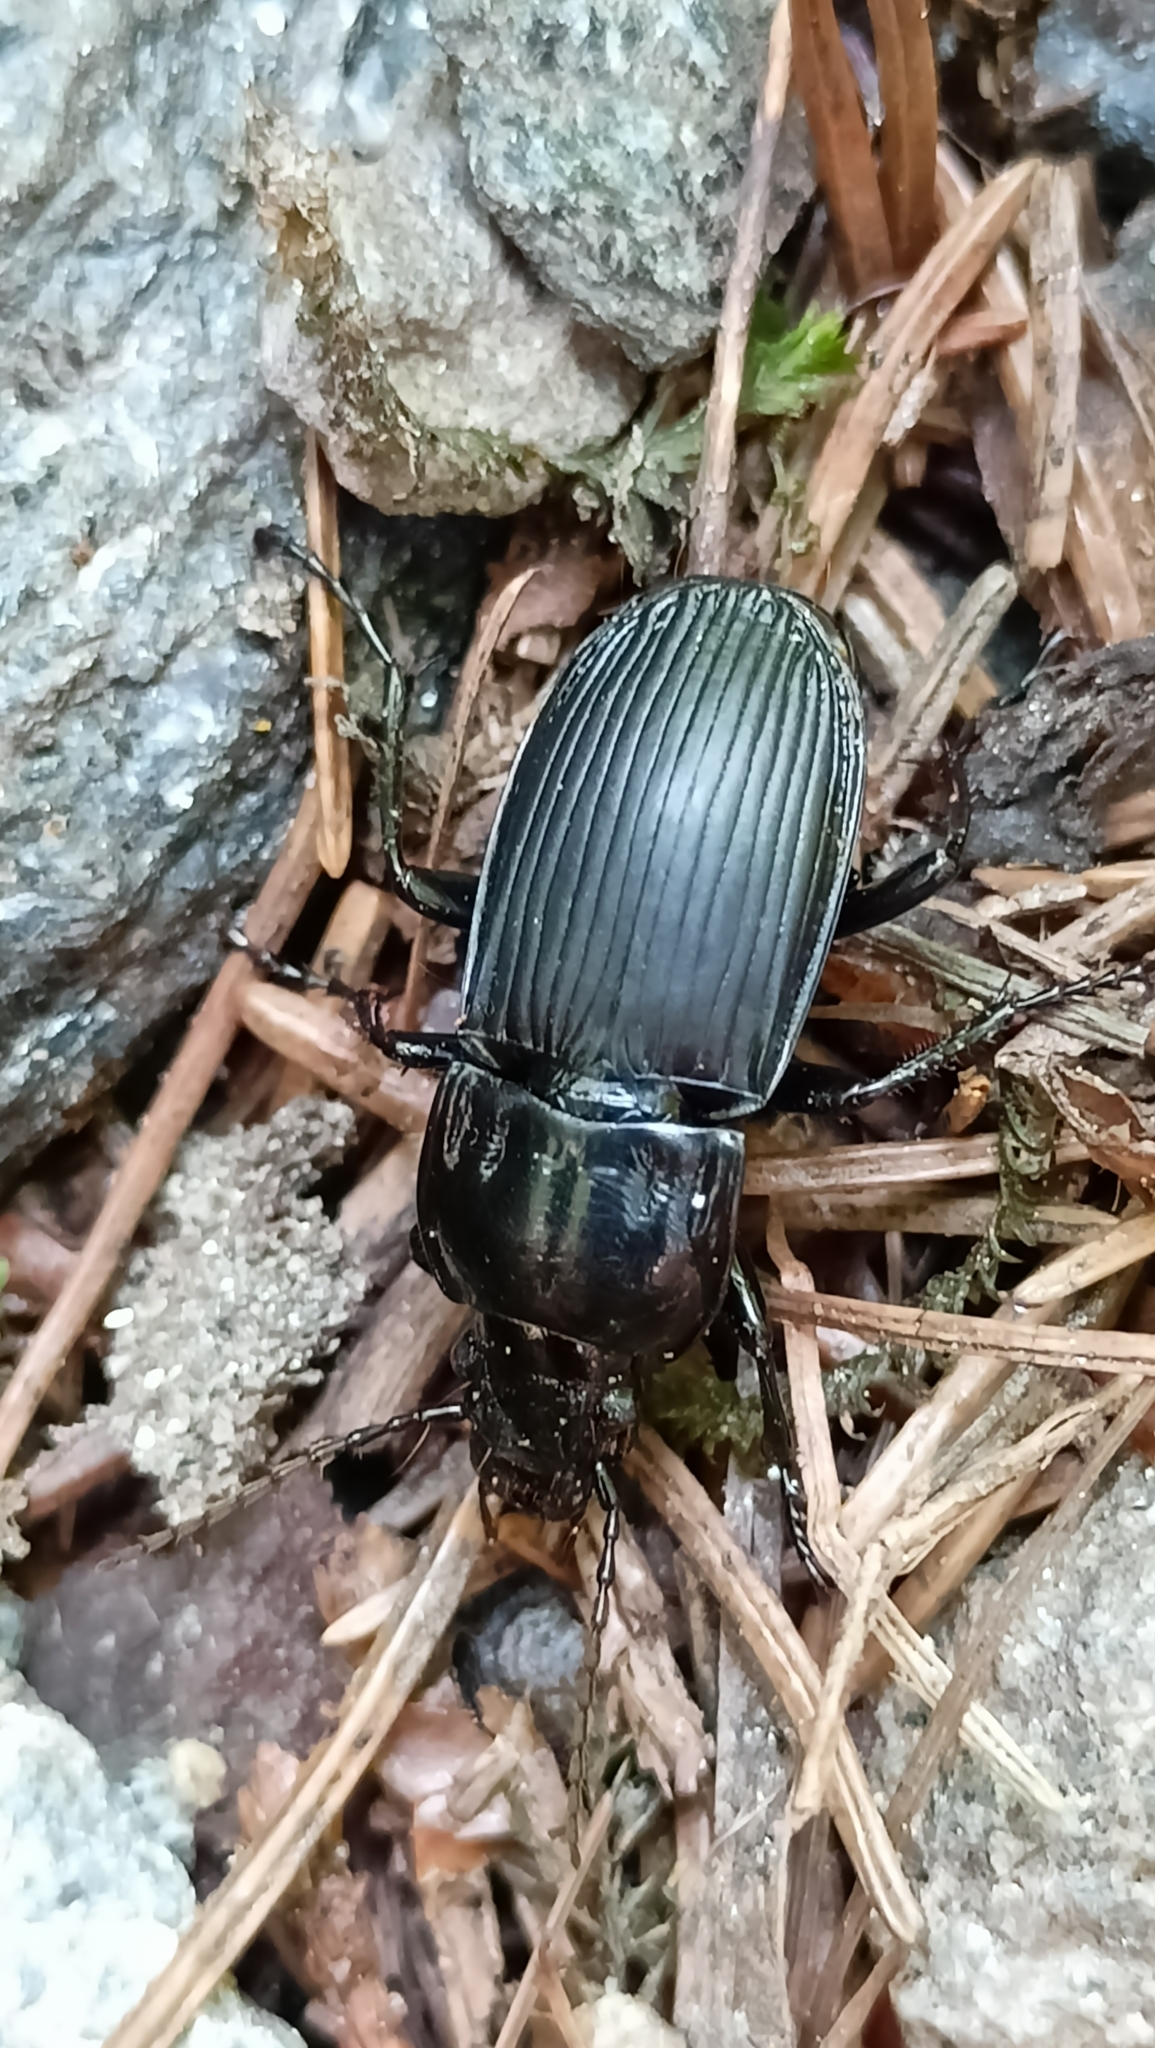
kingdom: Animalia
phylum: Arthropoda
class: Insecta
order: Coleoptera
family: Carabidae
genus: Abax
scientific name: Abax parallelepipedus
